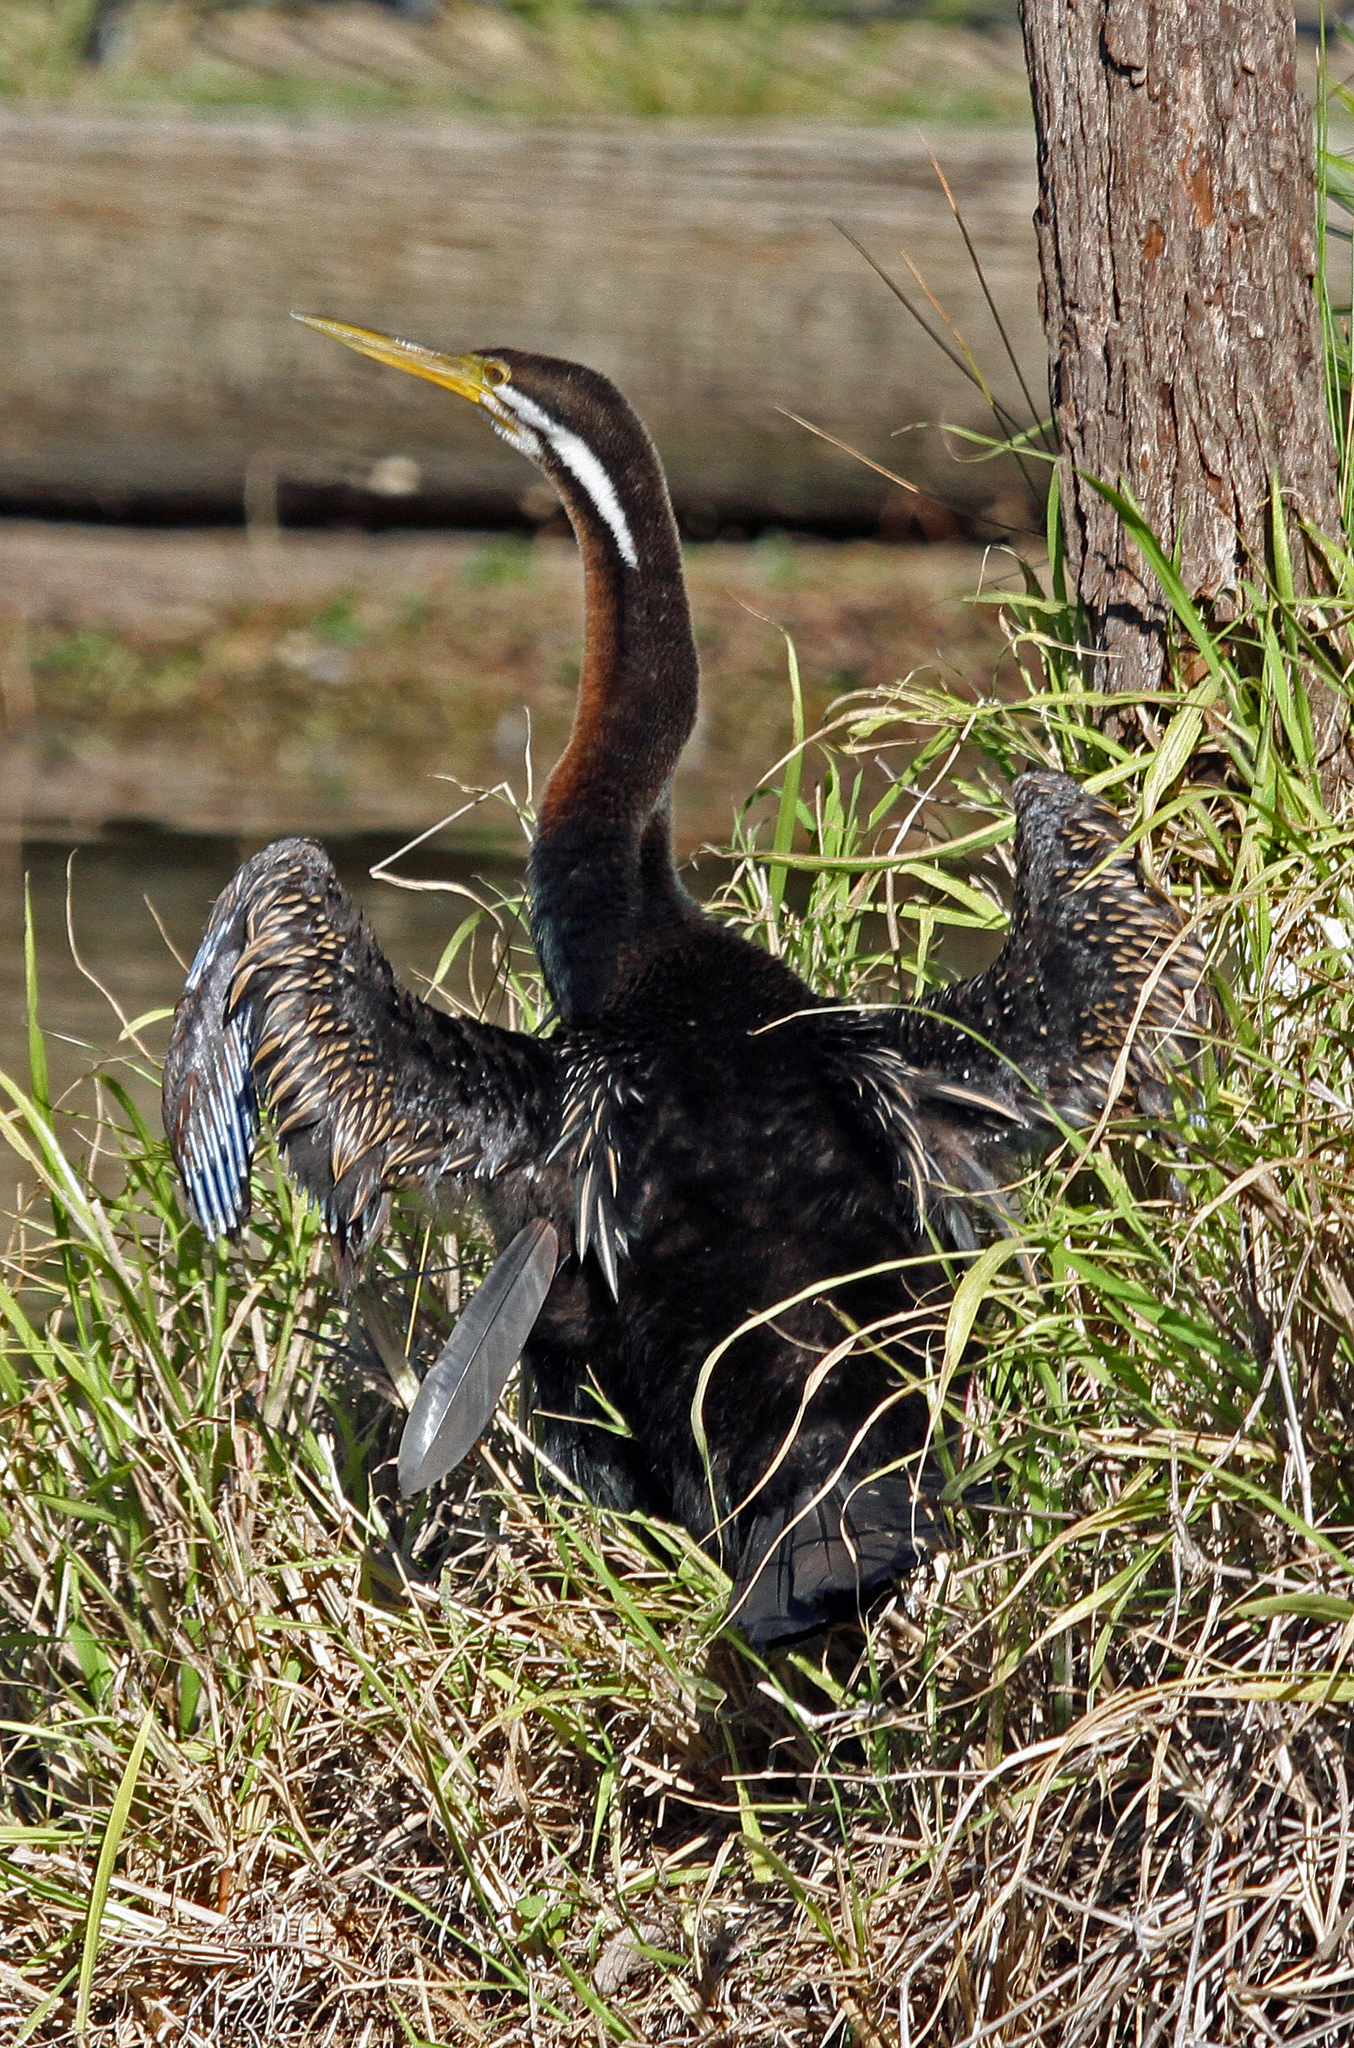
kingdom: Animalia
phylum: Chordata
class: Aves
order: Suliformes
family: Anhingidae
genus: Anhinga
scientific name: Anhinga novaehollandiae
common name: Australasian darter
